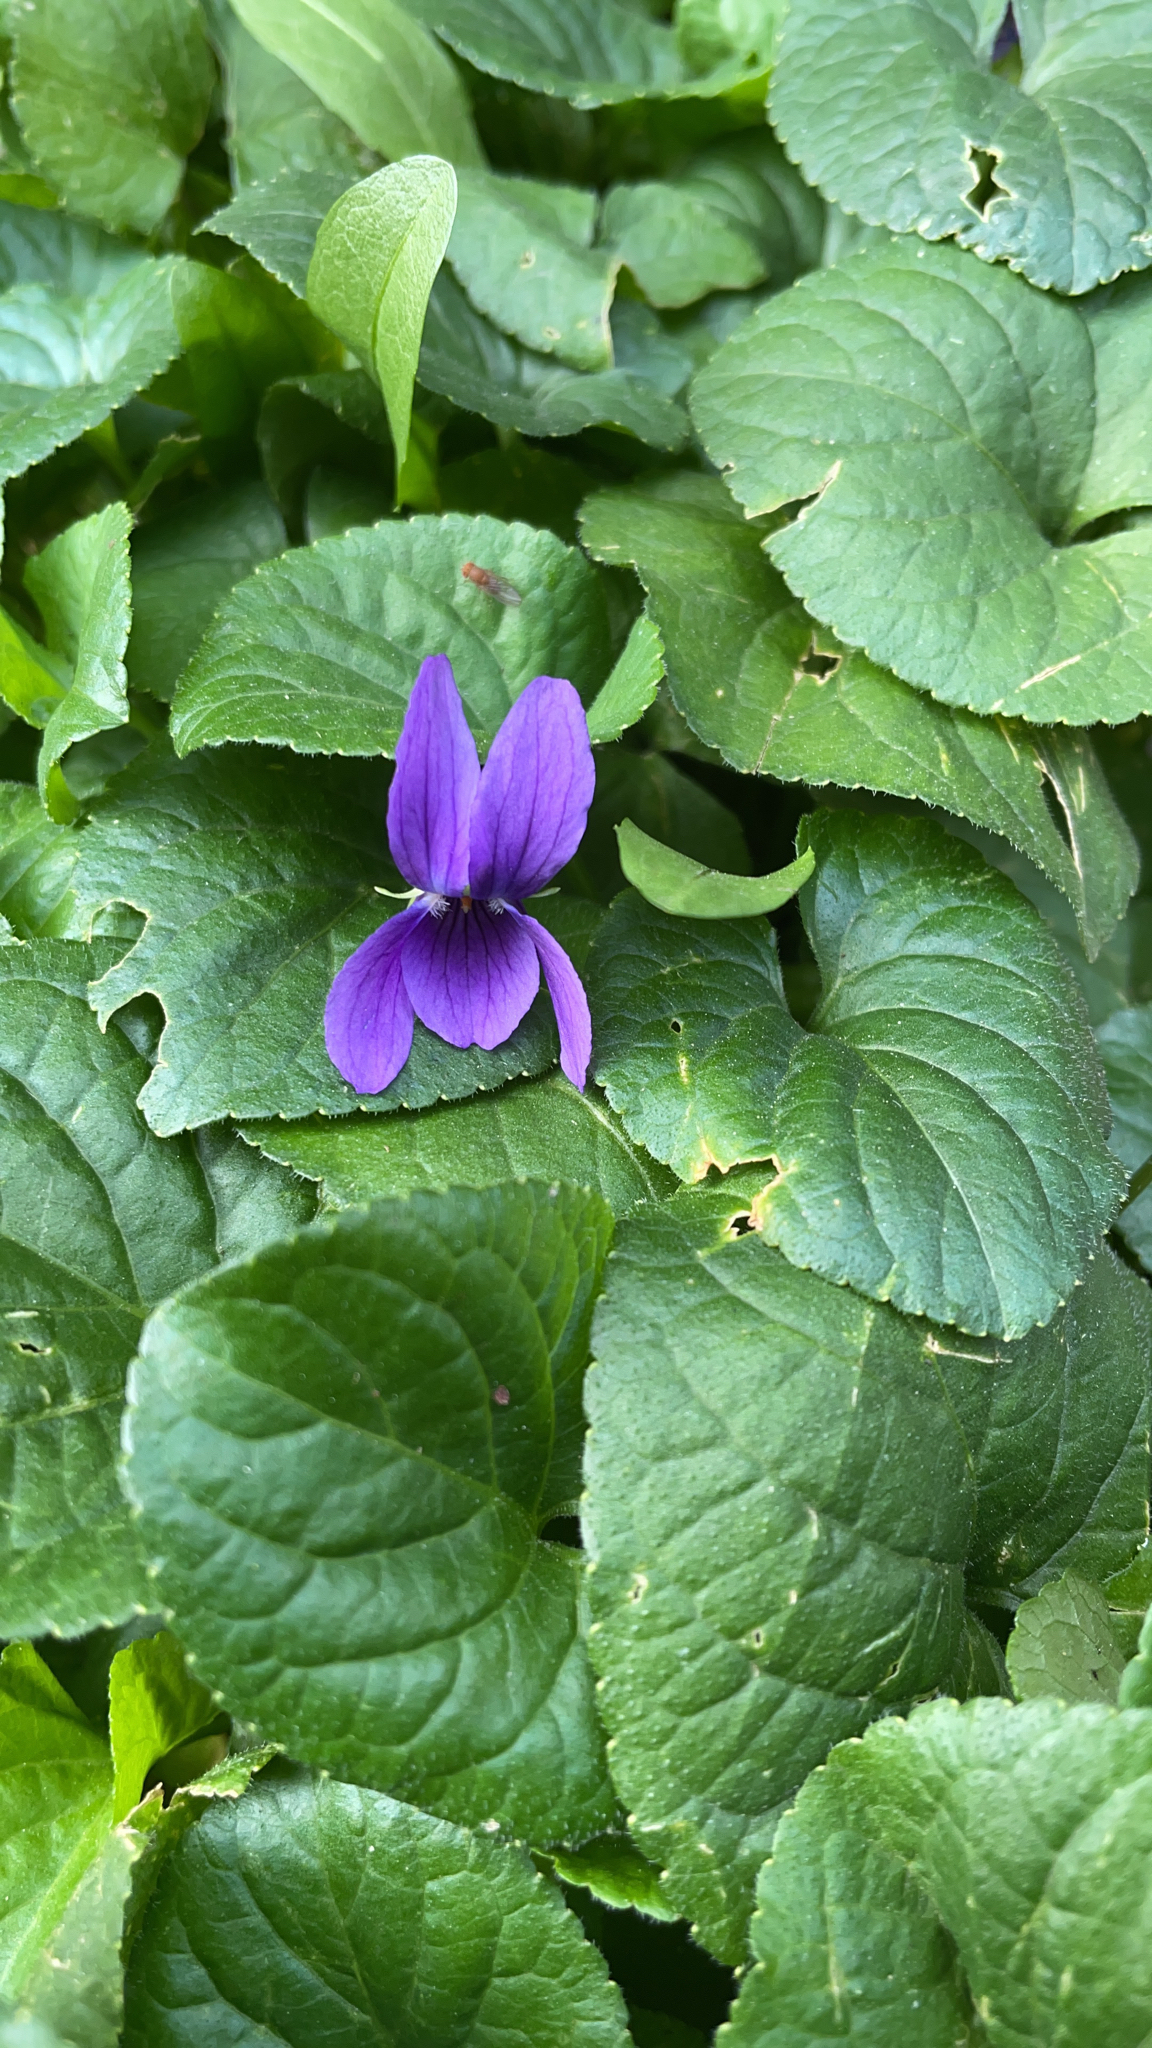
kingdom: Plantae
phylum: Tracheophyta
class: Magnoliopsida
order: Malpighiales
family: Violaceae
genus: Viola
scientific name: Viola odorata
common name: Sweet violet
